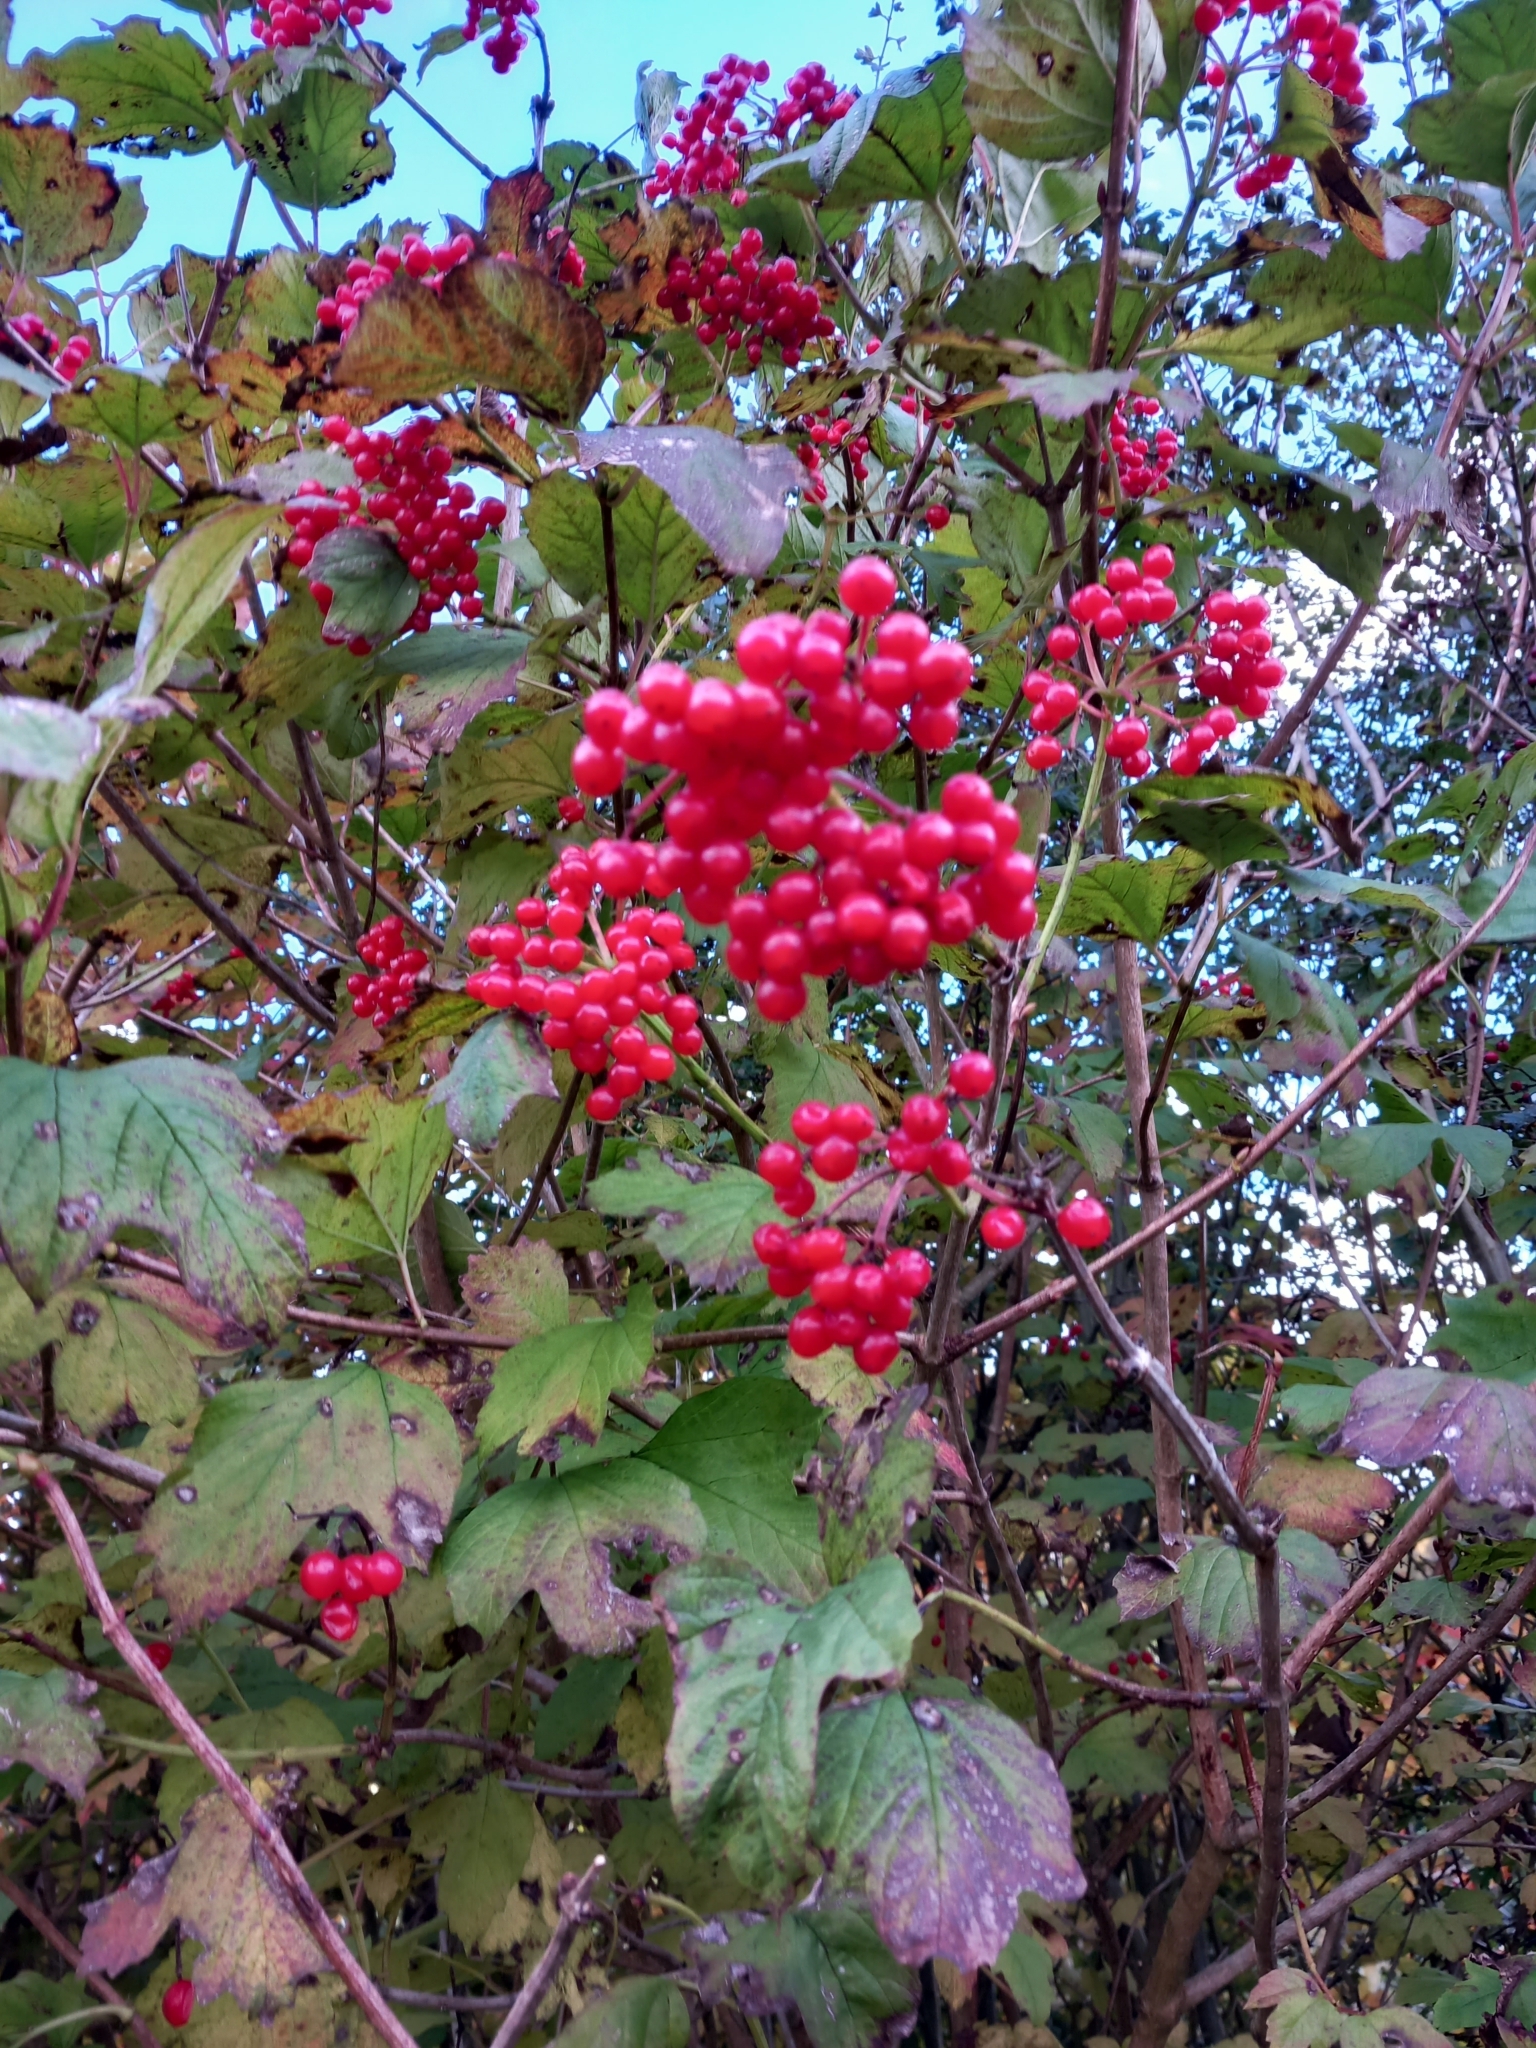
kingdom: Plantae
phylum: Tracheophyta
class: Magnoliopsida
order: Dipsacales
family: Viburnaceae
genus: Viburnum
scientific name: Viburnum opulus
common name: Guelder-rose
